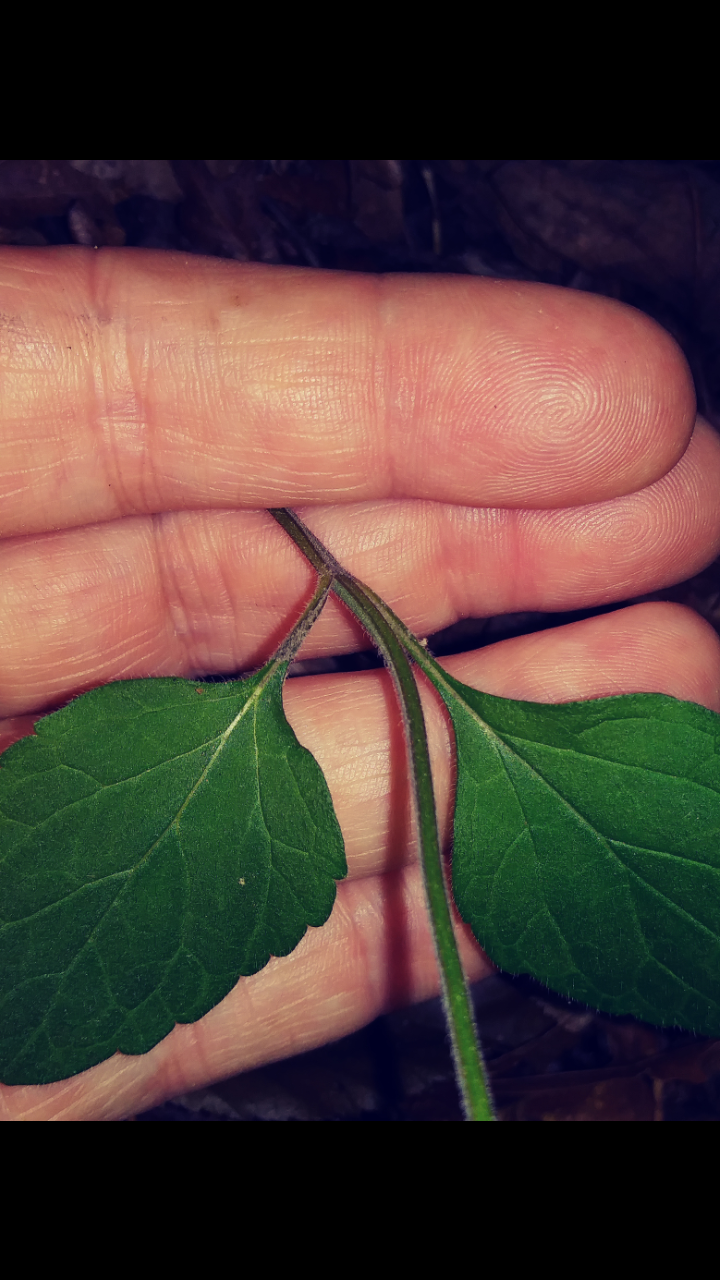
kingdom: Plantae
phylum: Tracheophyta
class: Magnoliopsida
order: Lamiales
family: Lamiaceae
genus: Scutellaria
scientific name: Scutellaria elliptica
